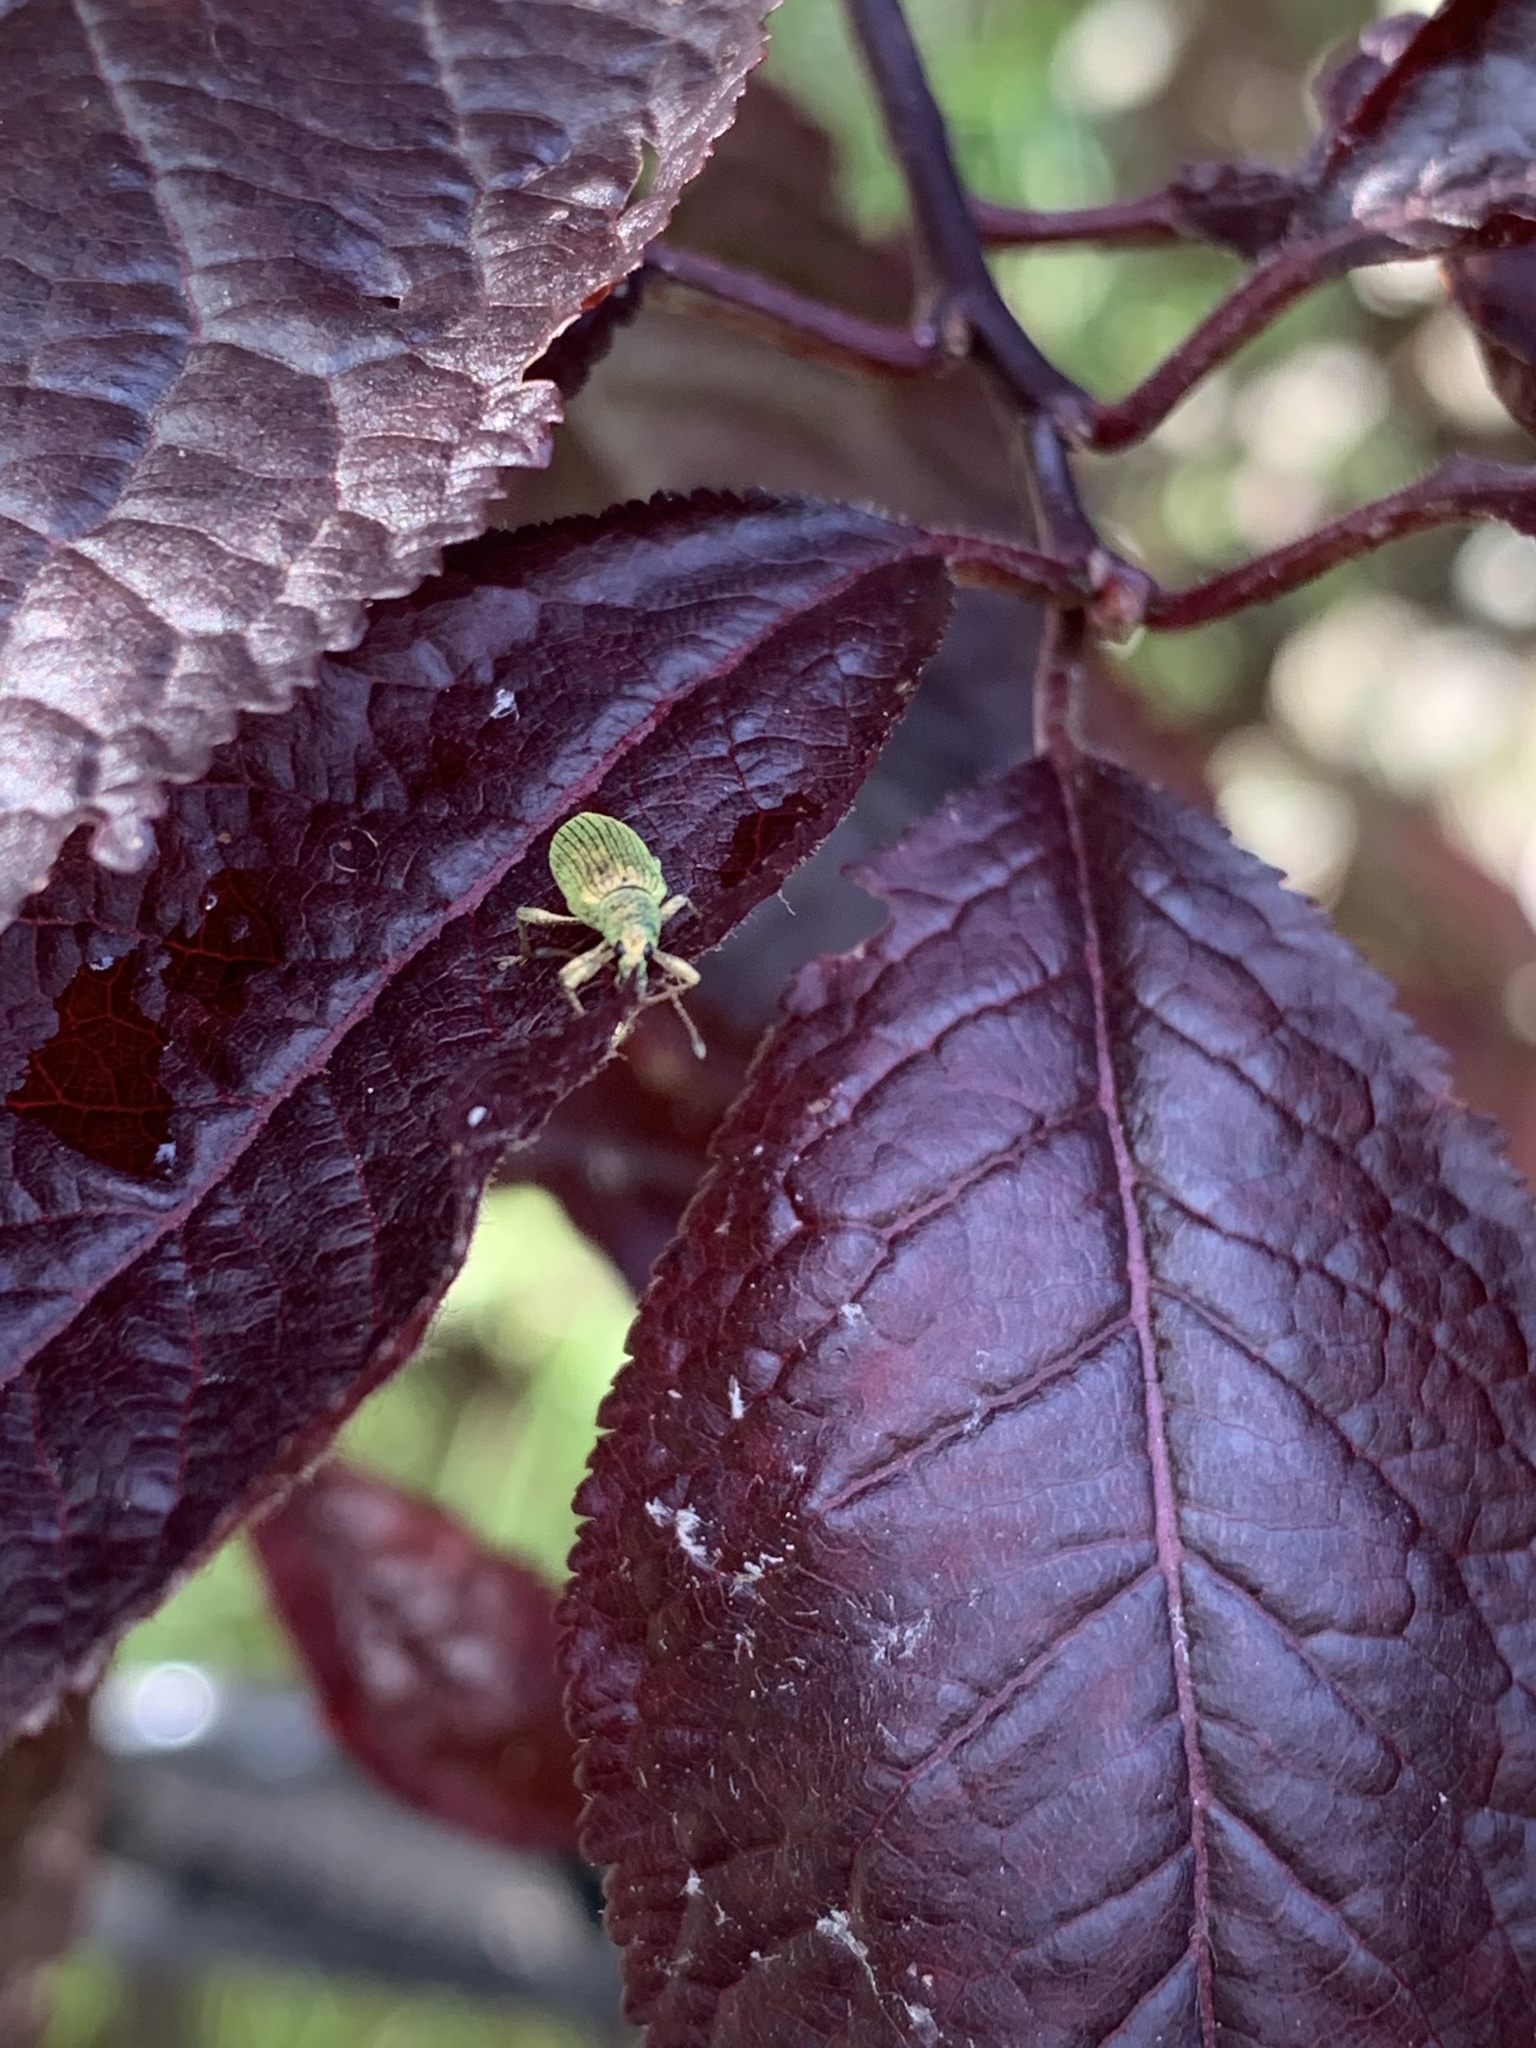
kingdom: Animalia
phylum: Arthropoda
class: Insecta
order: Coleoptera
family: Curculionidae
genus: Polydrusus
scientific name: Polydrusus formosus
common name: Weevil
